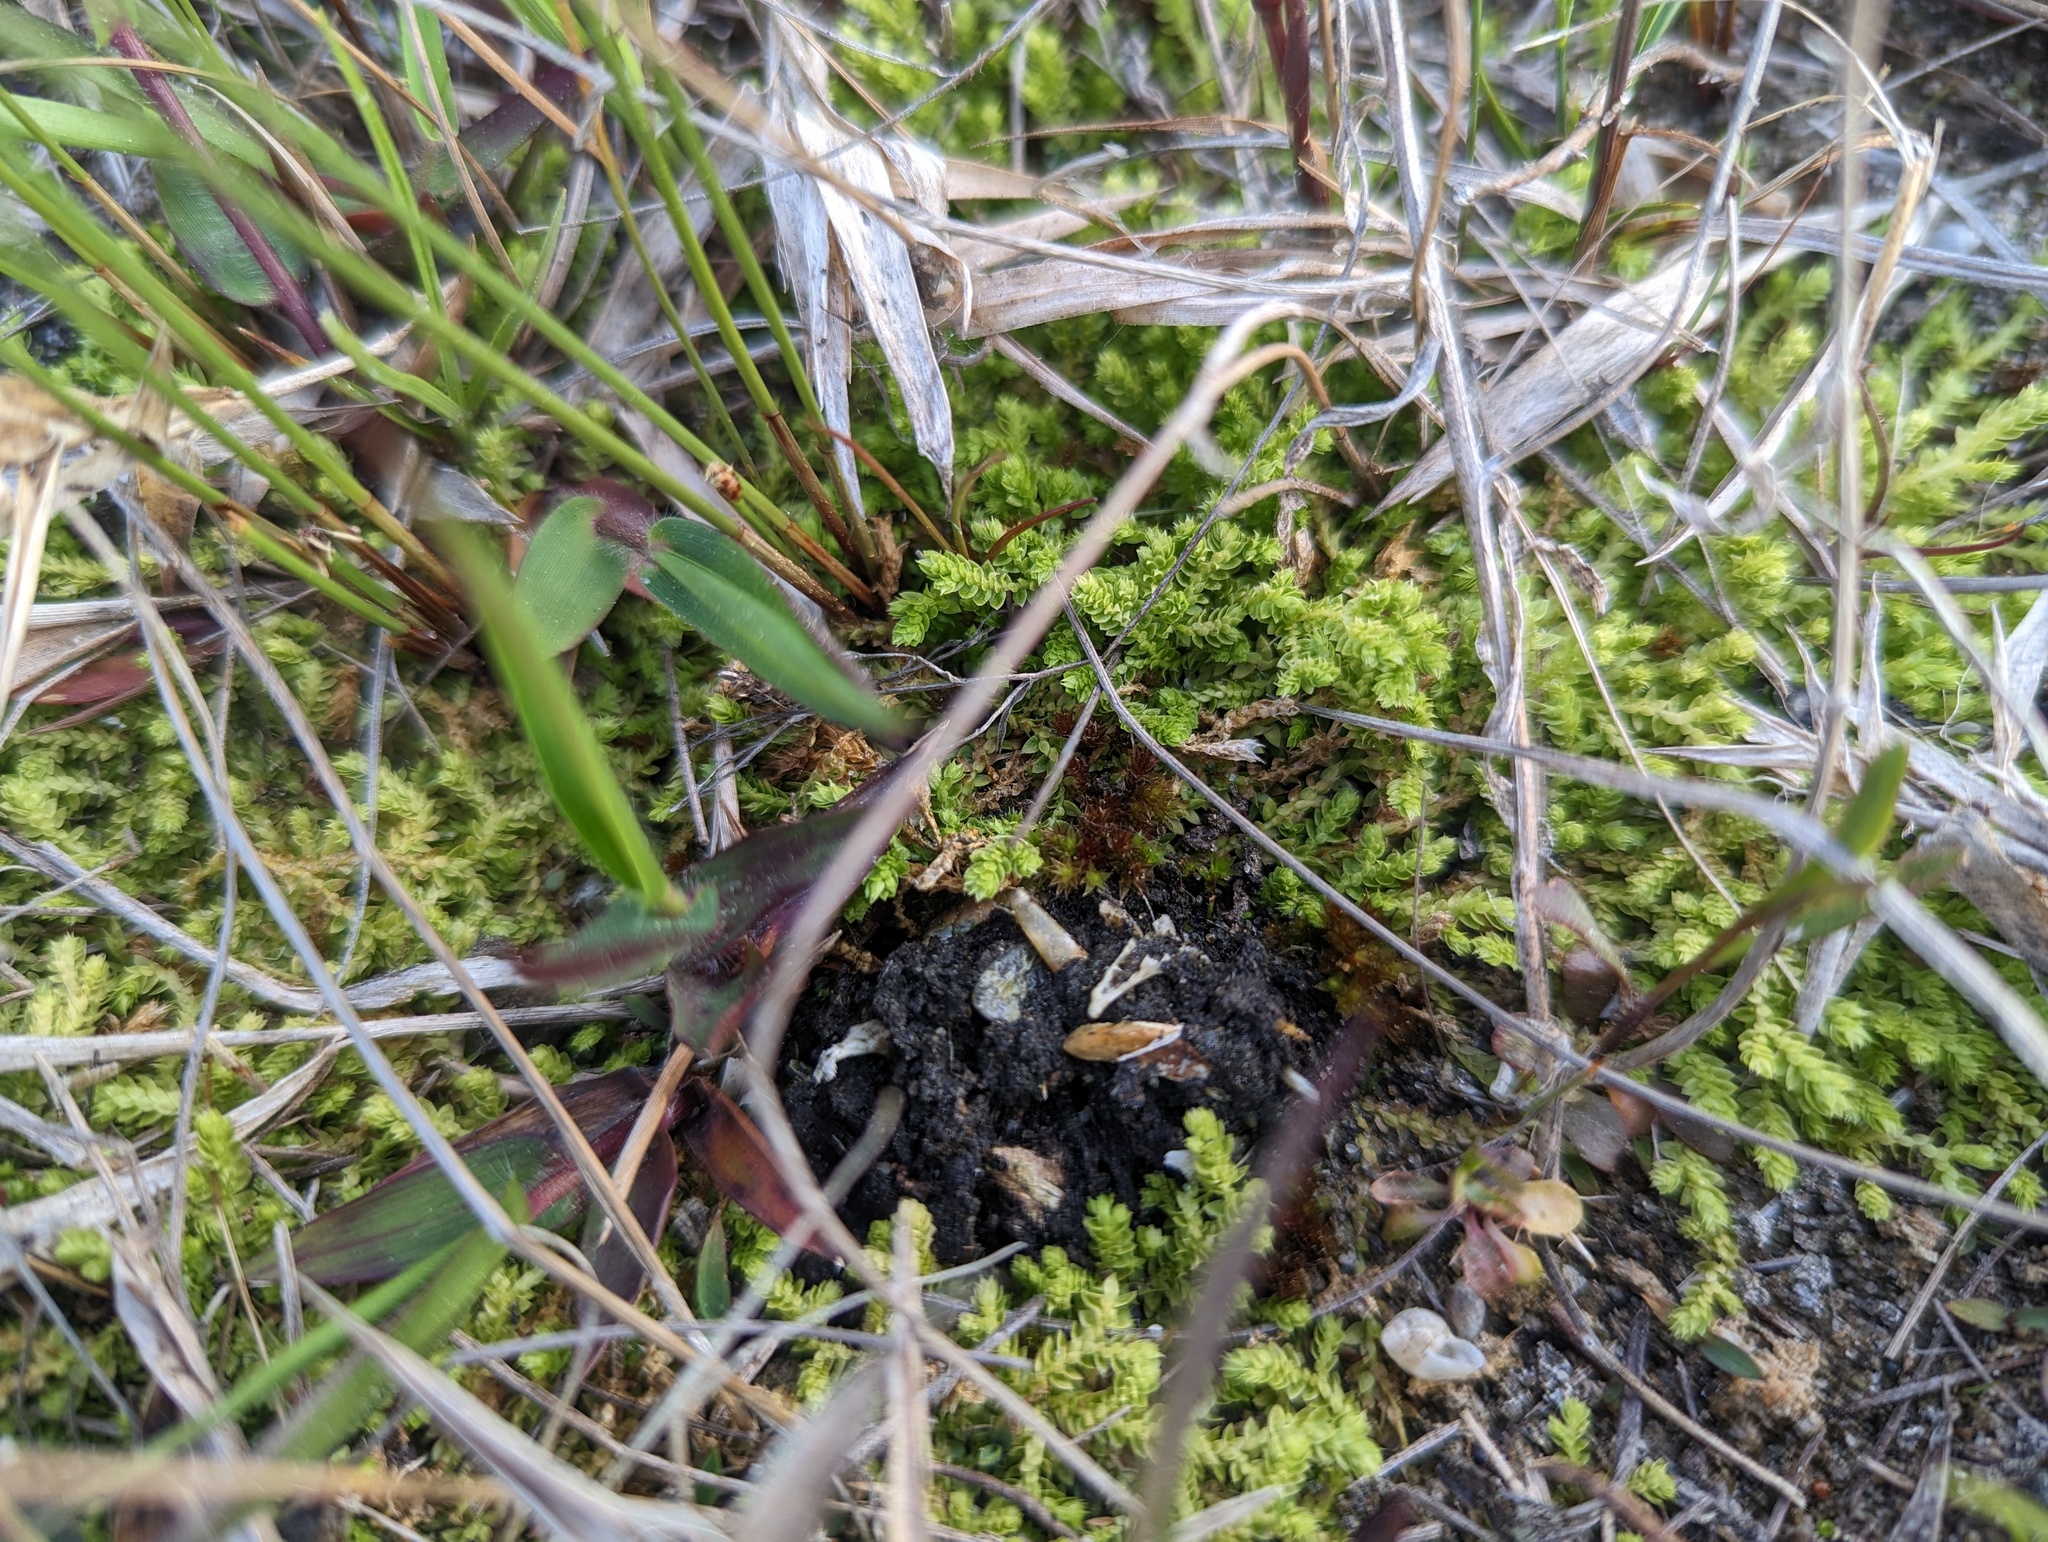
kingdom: Plantae
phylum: Tracheophyta
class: Lycopodiopsida
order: Selaginellales
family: Selaginellaceae
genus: Selaginella
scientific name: Selaginella eclipes
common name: Buck's meadow spikemoss
